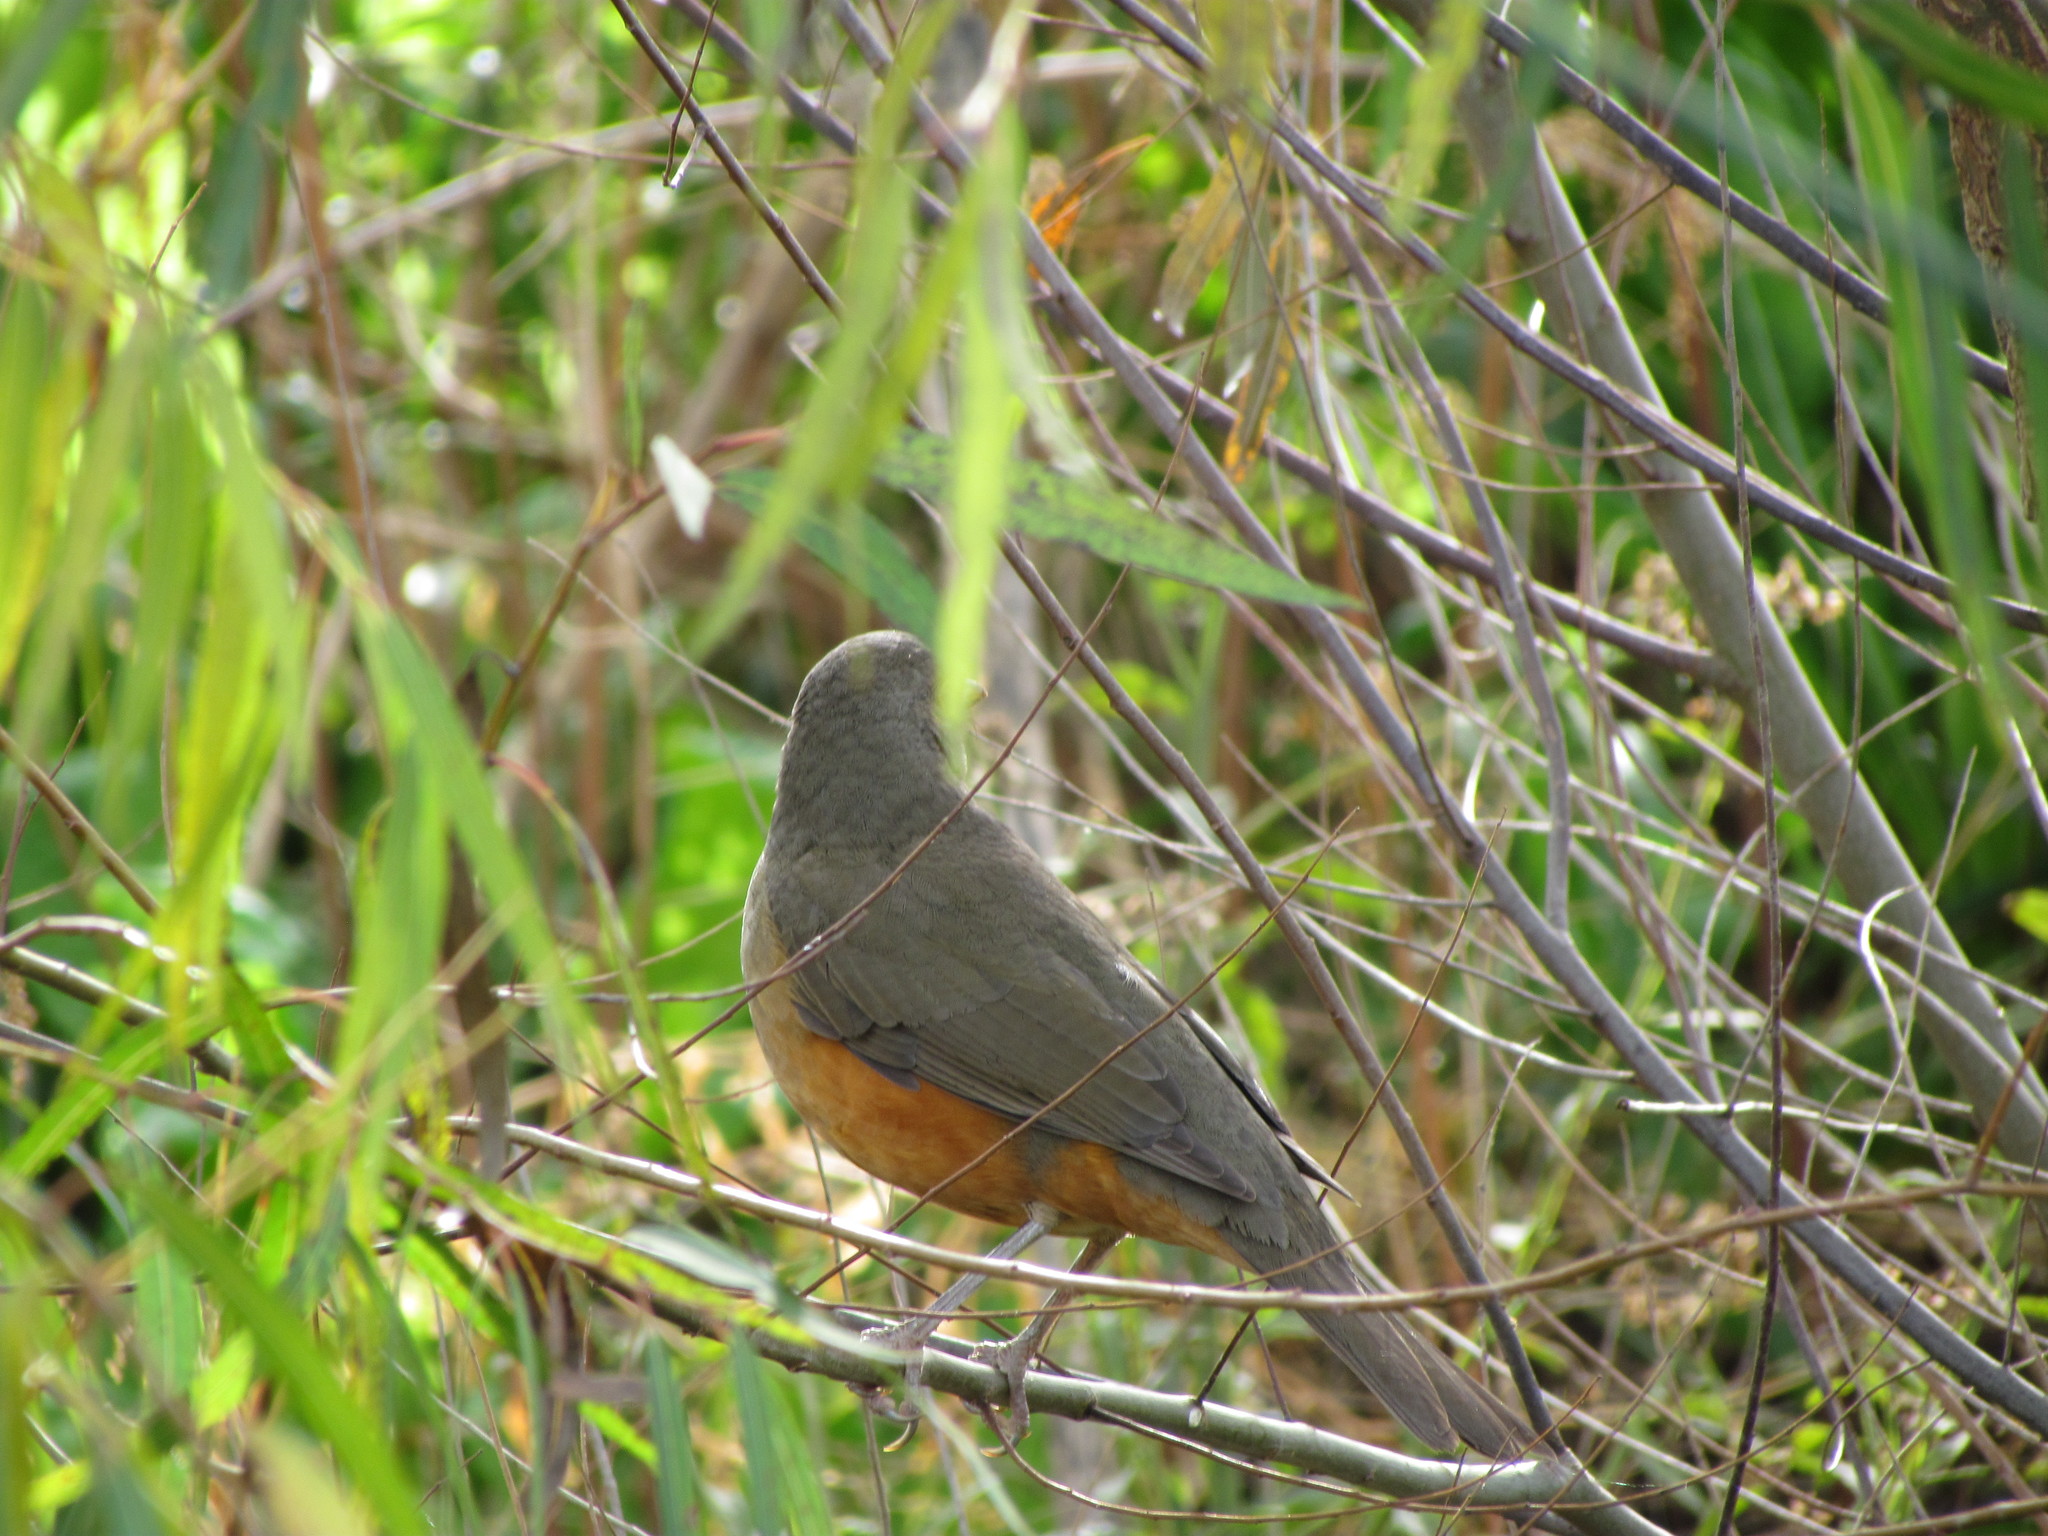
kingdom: Animalia
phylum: Chordata
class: Aves
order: Passeriformes
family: Turdidae
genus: Turdus
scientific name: Turdus rufiventris
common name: Rufous-bellied thrush
